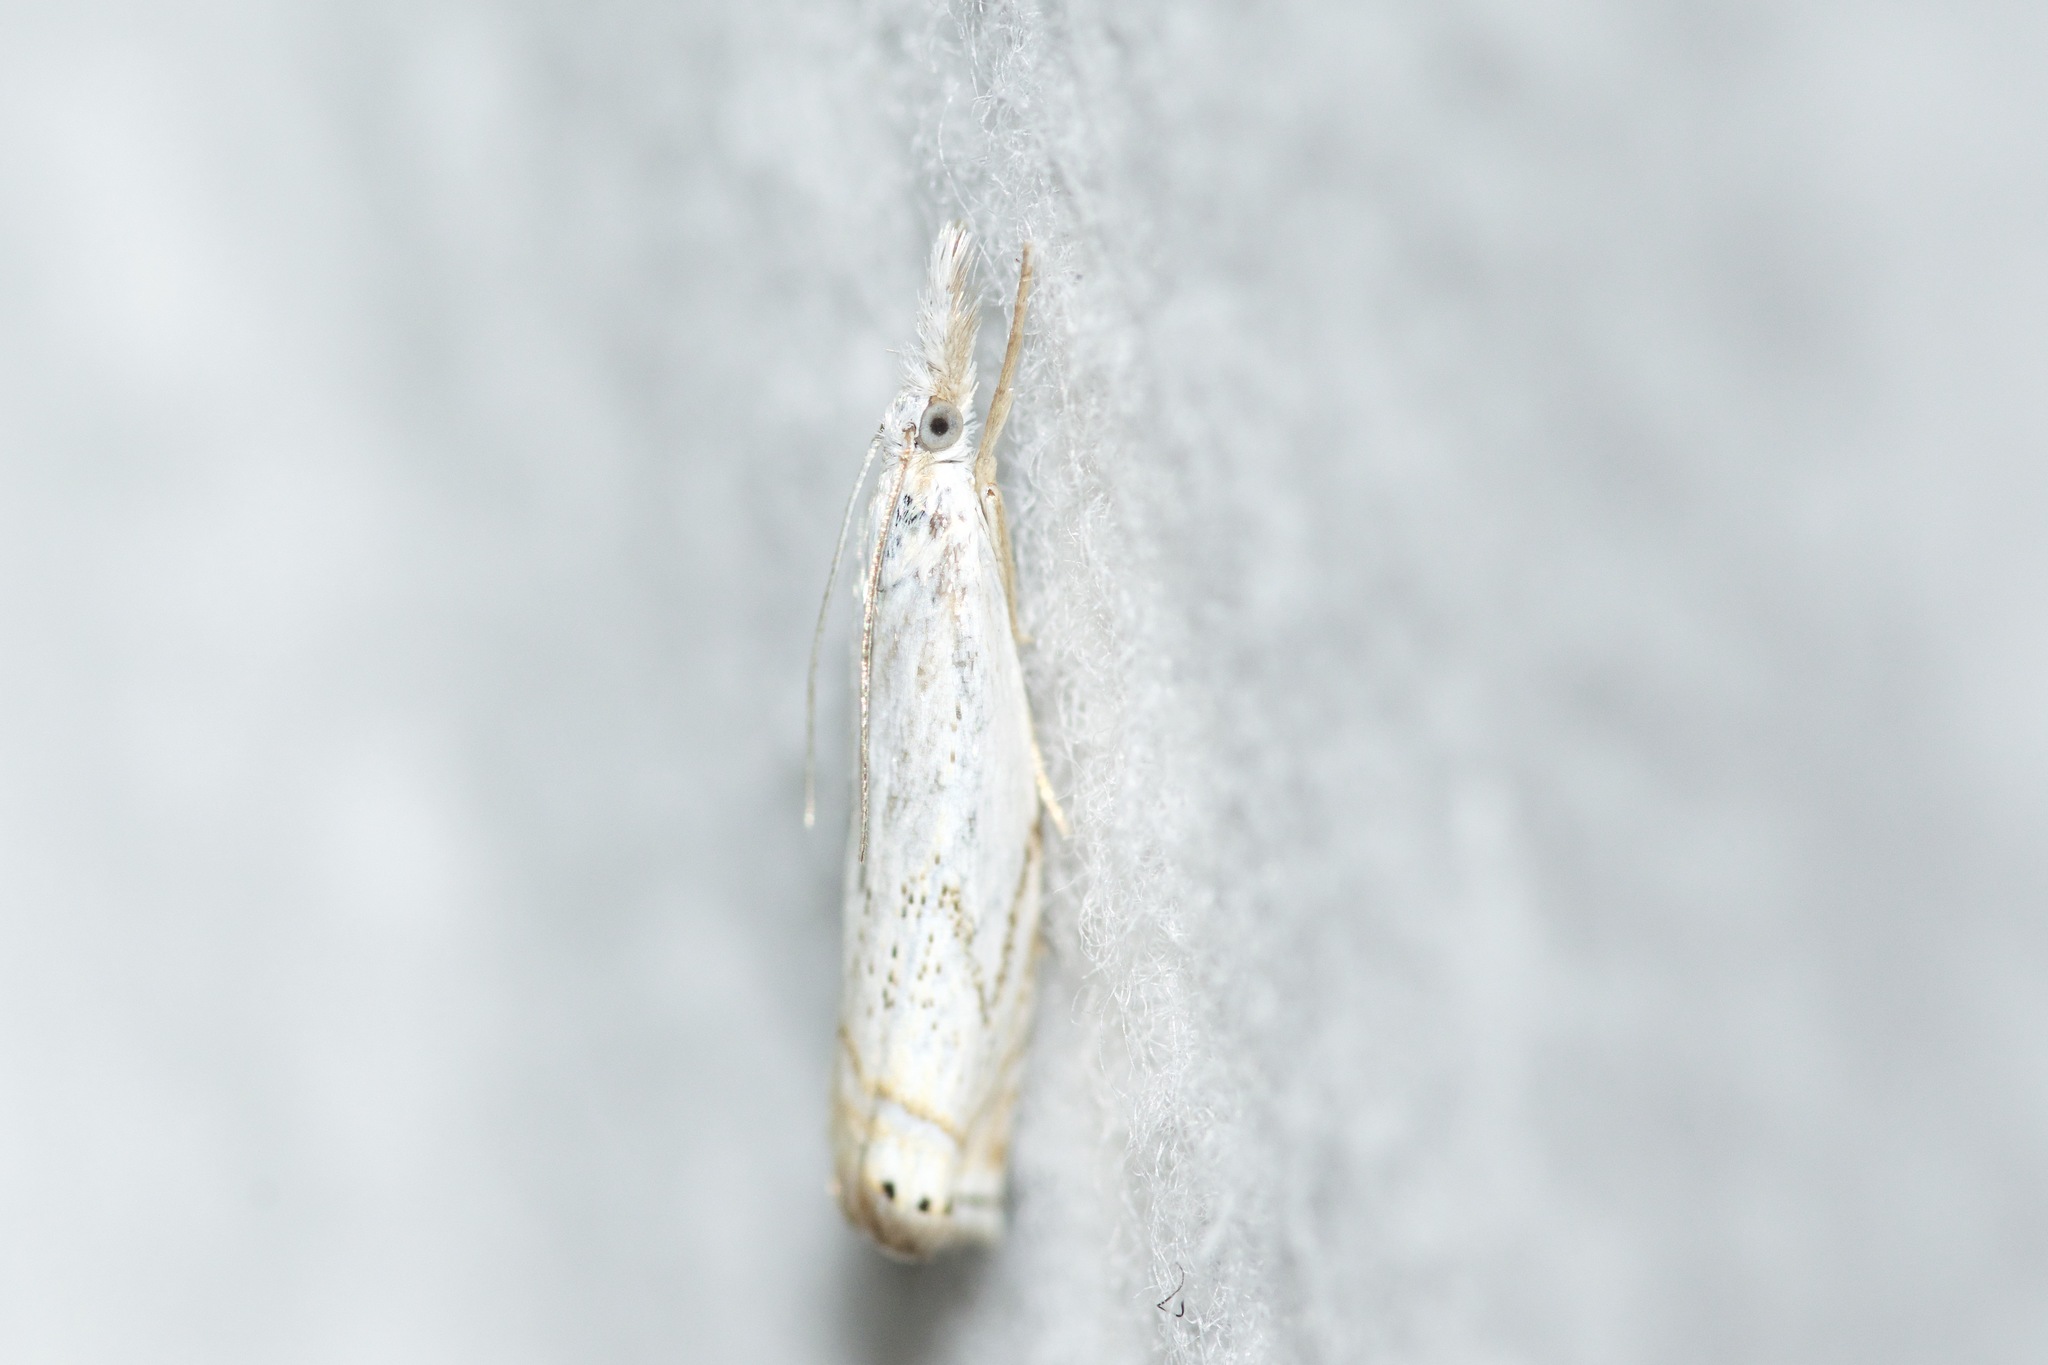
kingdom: Animalia
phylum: Arthropoda
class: Insecta
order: Lepidoptera
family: Crambidae
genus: Crambus
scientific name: Crambus albellus
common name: Small white grass-veneer
